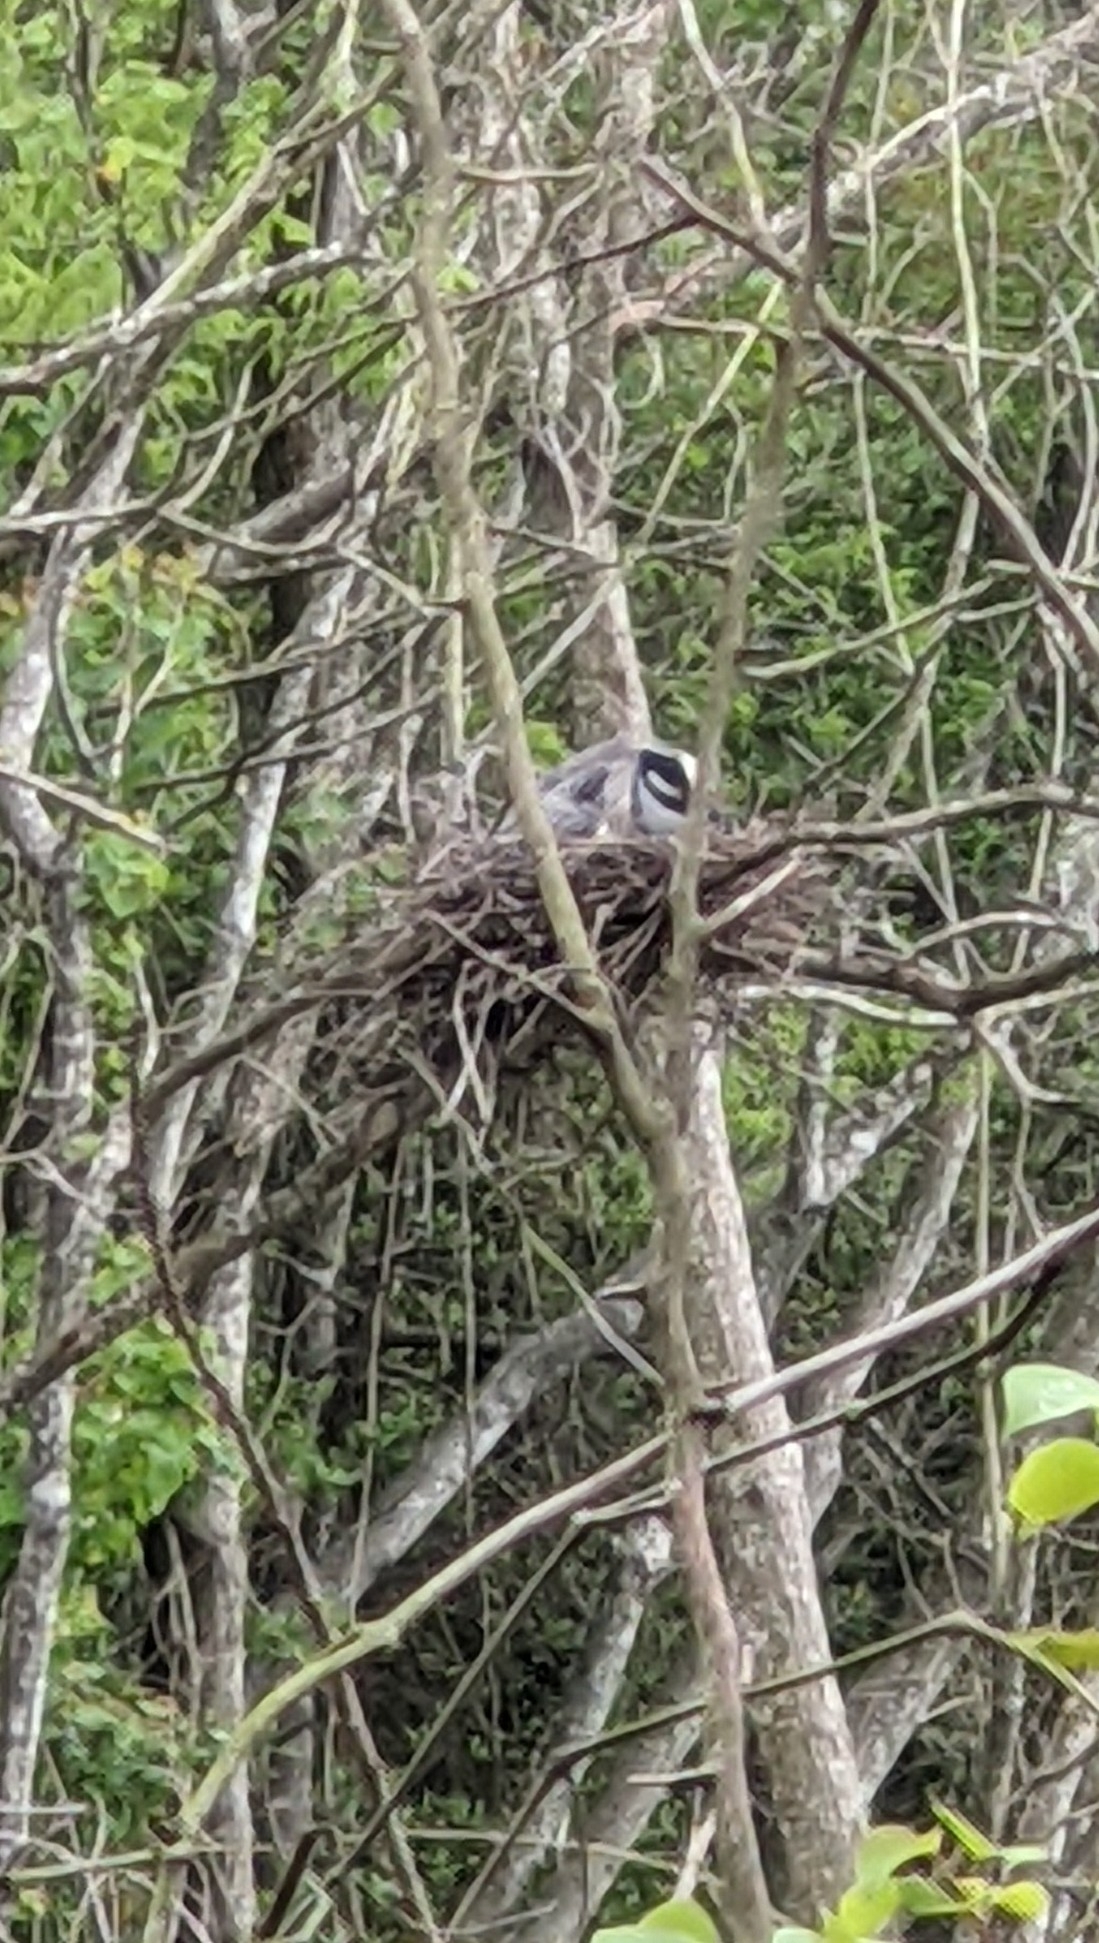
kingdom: Animalia
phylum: Chordata
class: Aves
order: Pelecaniformes
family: Ardeidae
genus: Nyctanassa
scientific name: Nyctanassa violacea
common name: Yellow-crowned night heron
